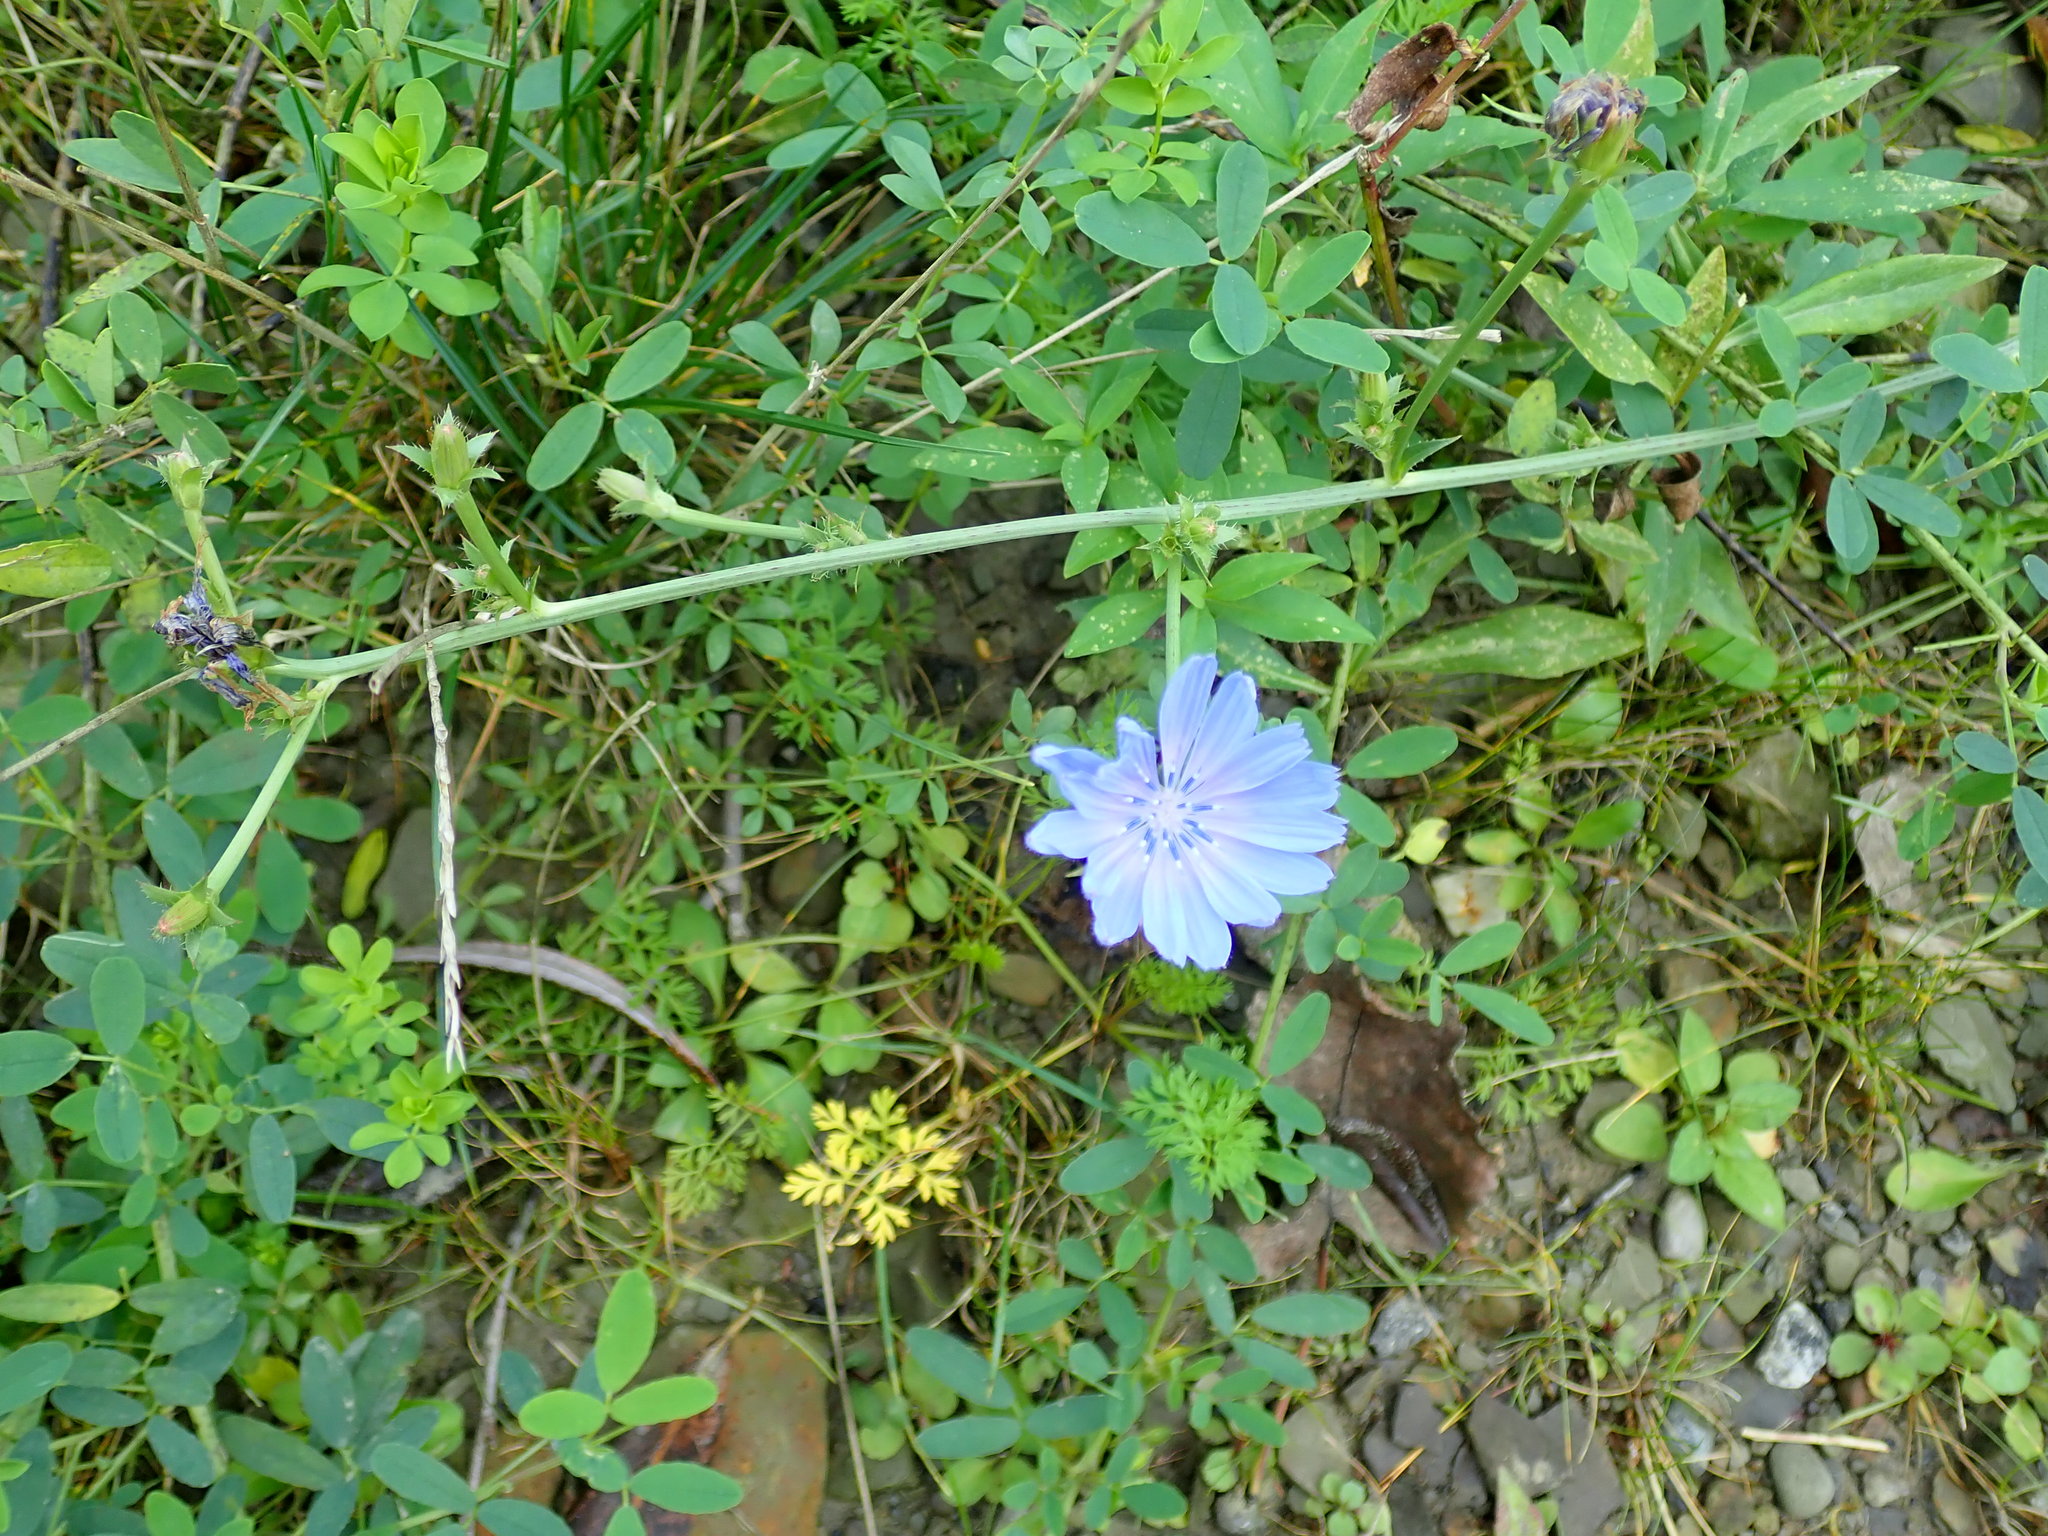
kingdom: Plantae
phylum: Tracheophyta
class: Magnoliopsida
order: Asterales
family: Asteraceae
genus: Cichorium
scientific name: Cichorium intybus
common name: Chicory
